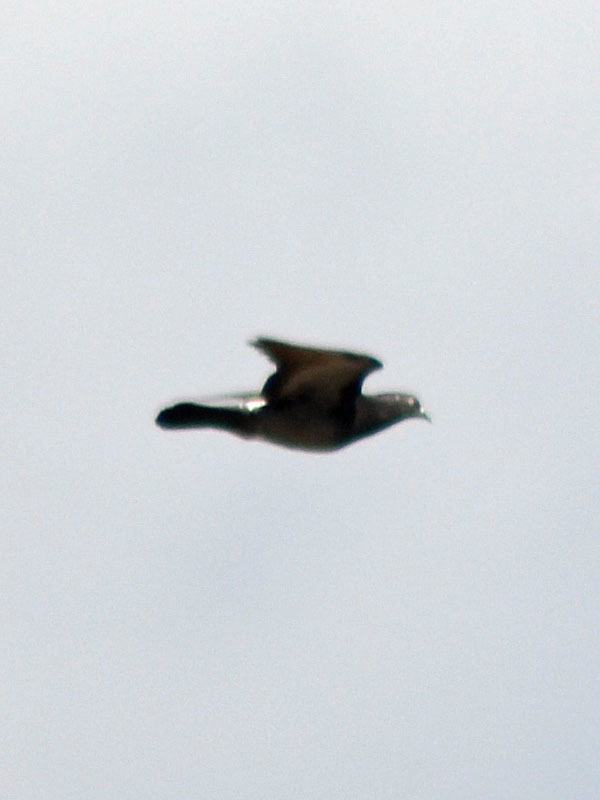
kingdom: Animalia
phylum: Chordata
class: Aves
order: Columbiformes
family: Columbidae
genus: Columba
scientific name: Columba livia
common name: Rock pigeon
